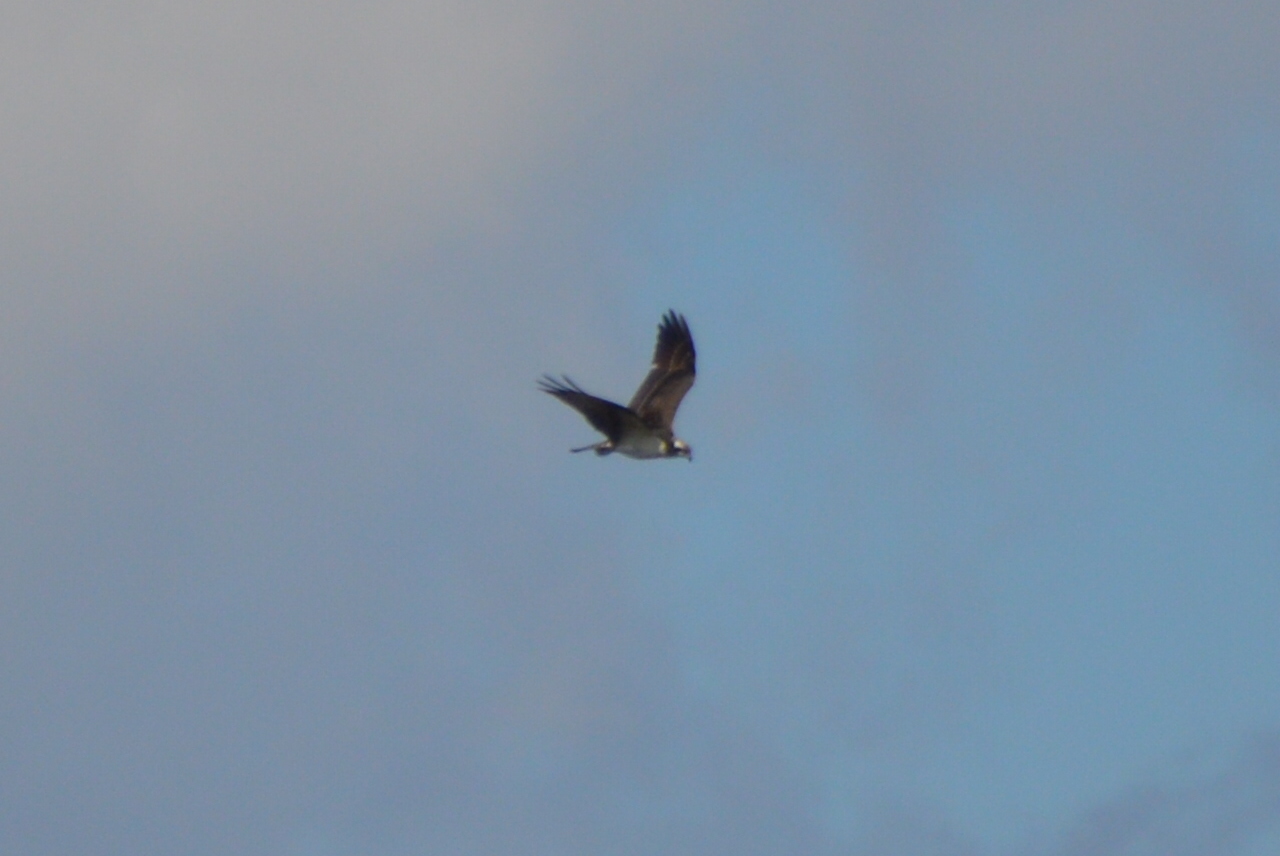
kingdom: Animalia
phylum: Chordata
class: Aves
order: Accipitriformes
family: Pandionidae
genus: Pandion
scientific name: Pandion haliaetus
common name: Osprey
